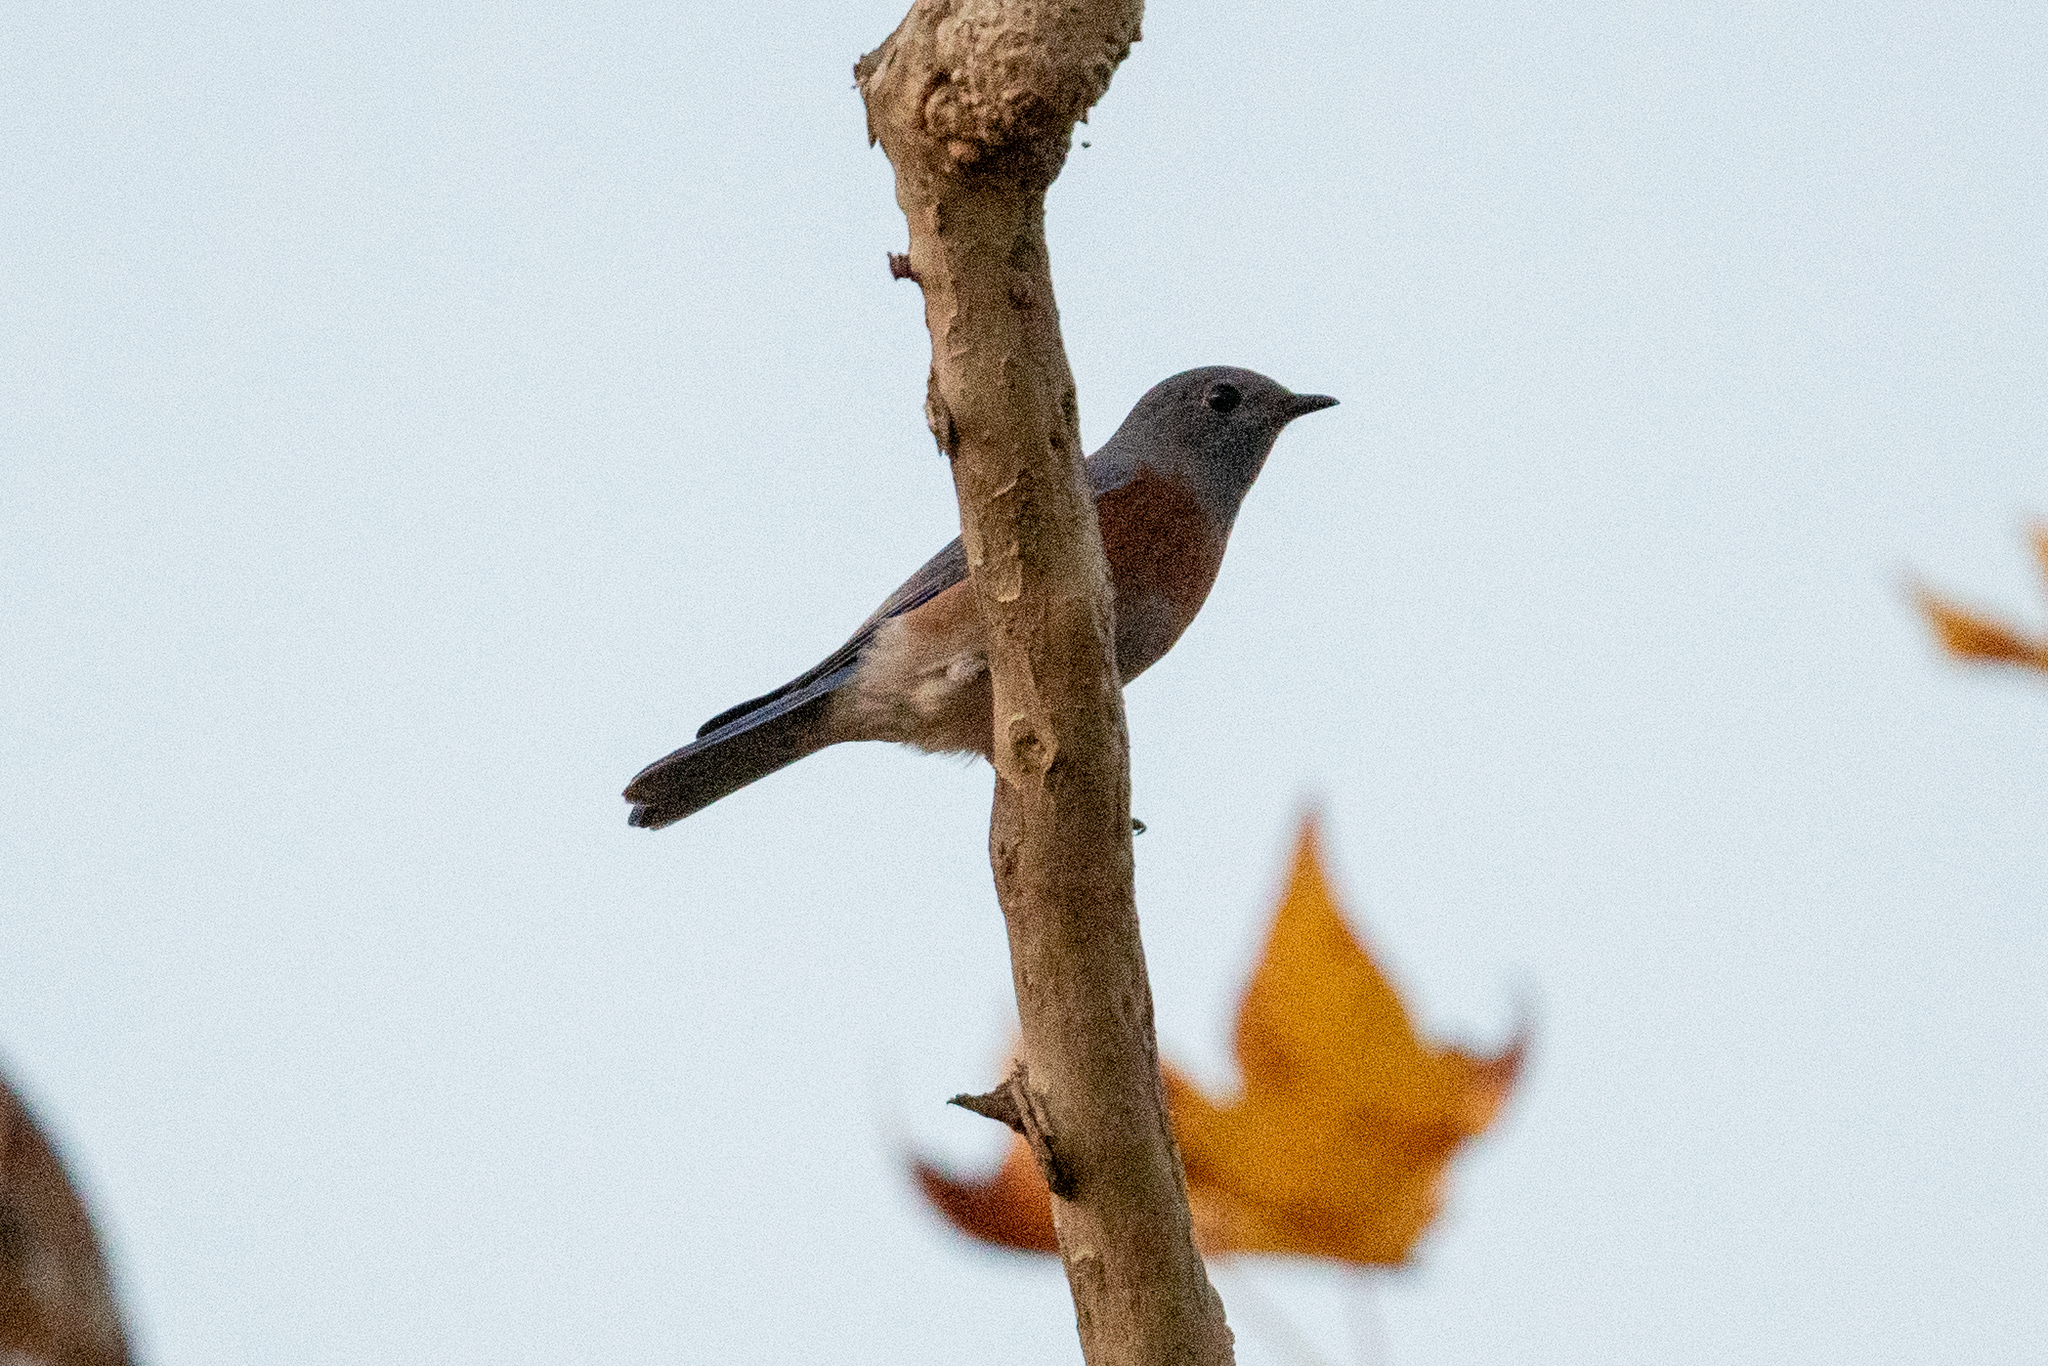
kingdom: Animalia
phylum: Chordata
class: Aves
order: Passeriformes
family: Turdidae
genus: Sialia
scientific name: Sialia mexicana
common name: Western bluebird
